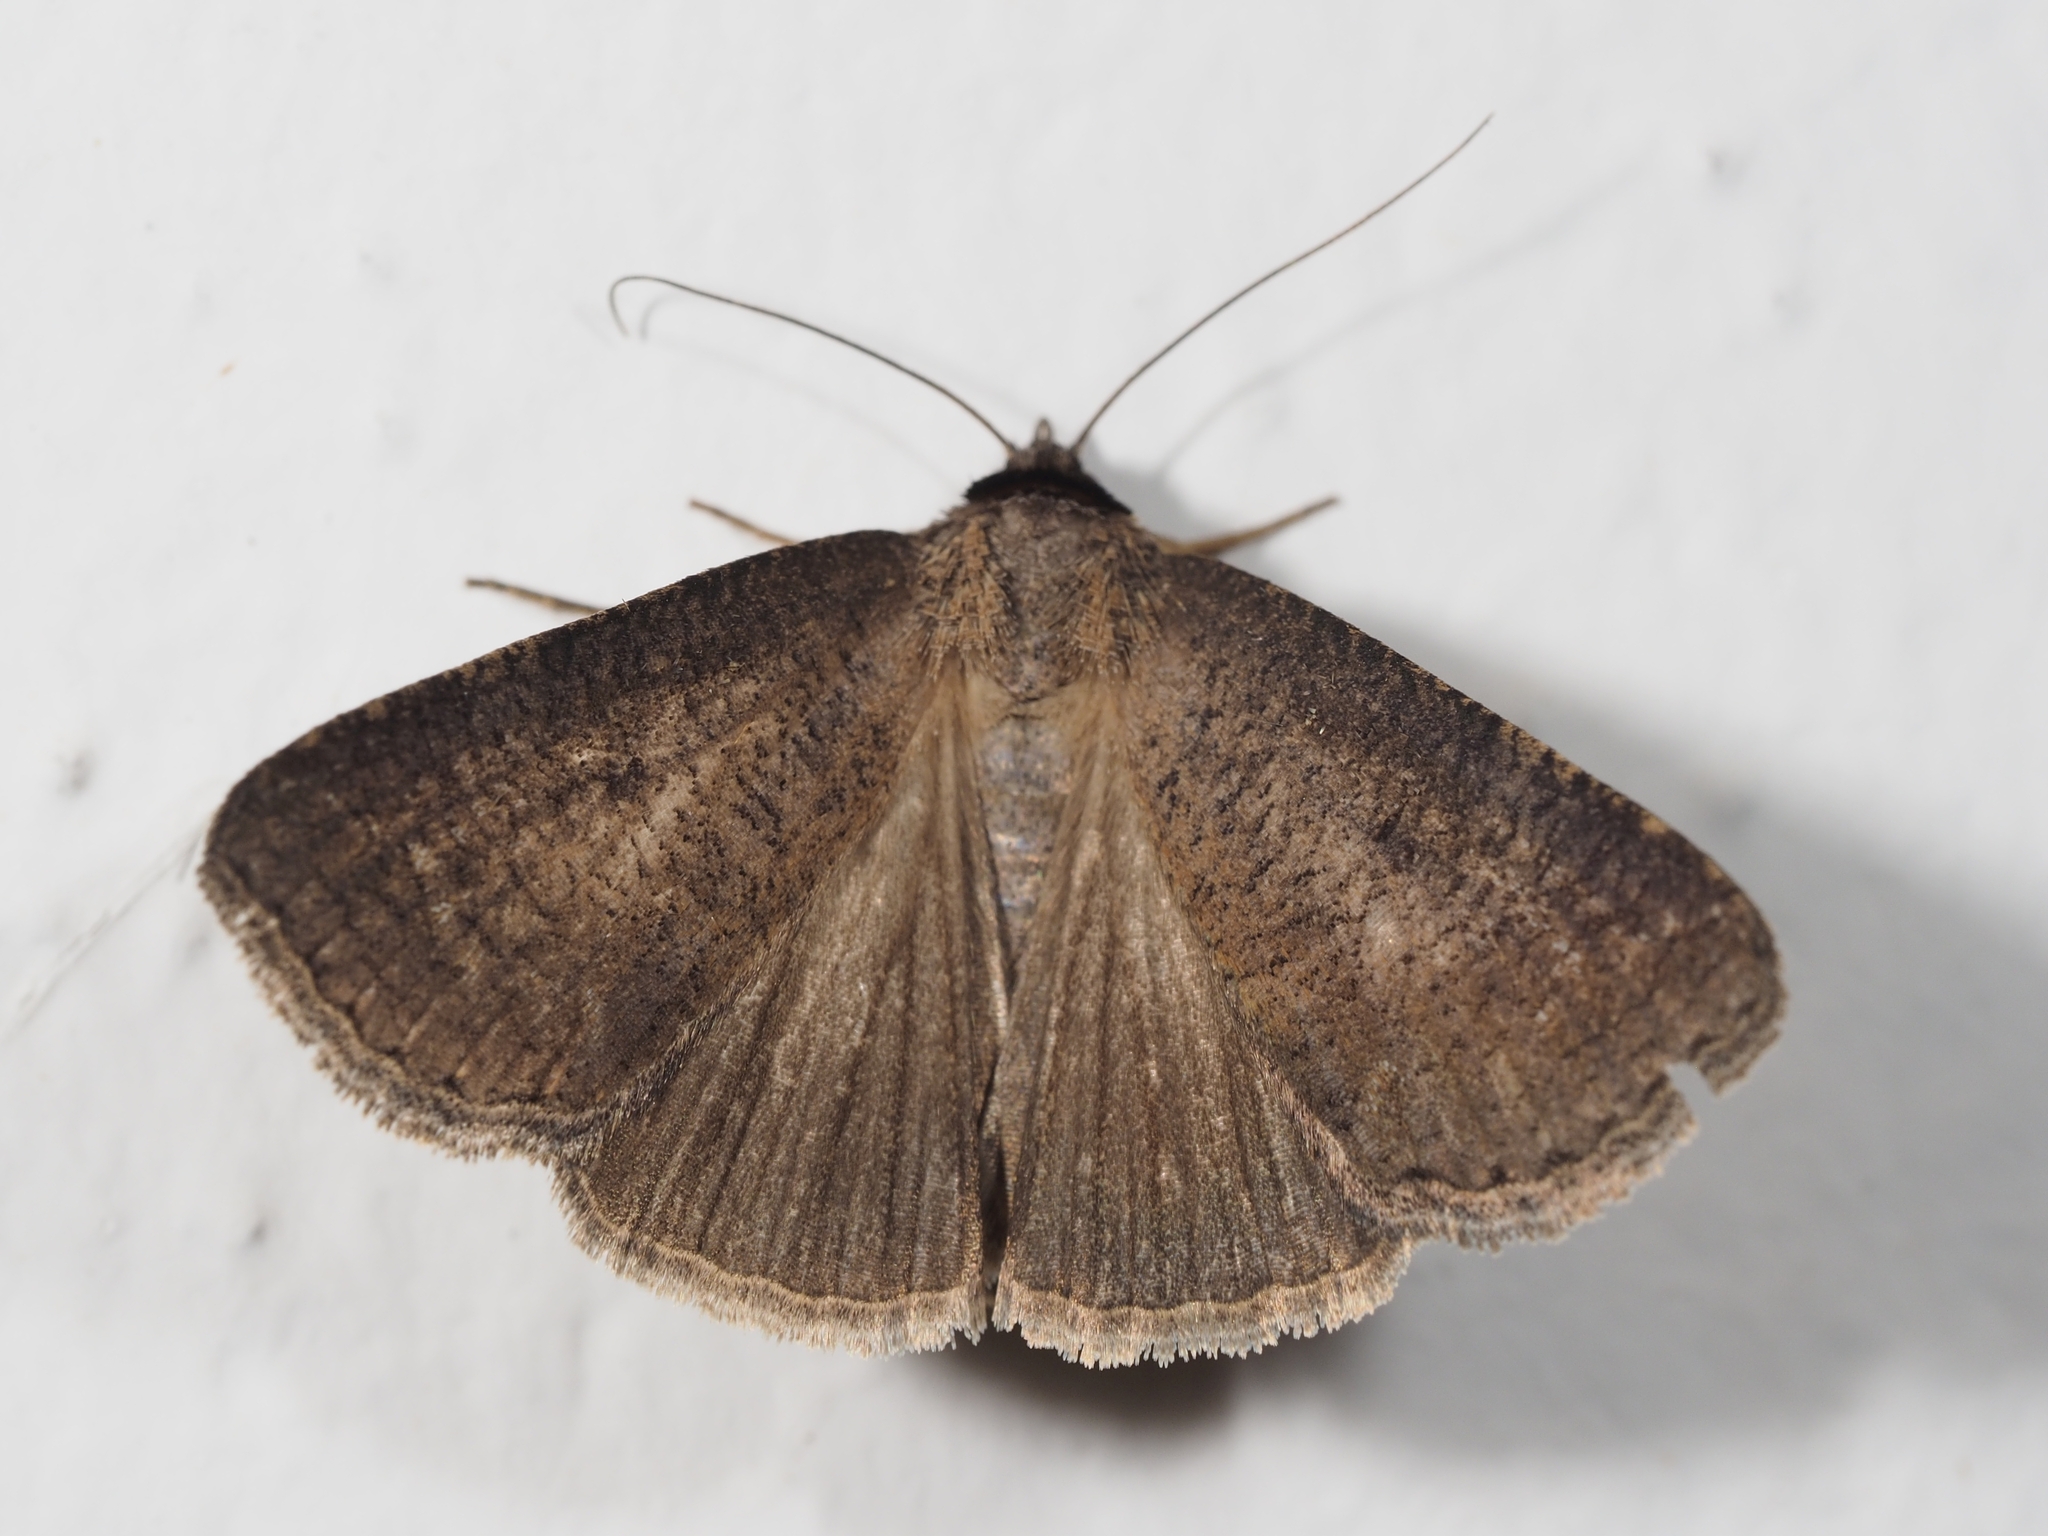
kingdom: Animalia
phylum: Arthropoda
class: Insecta
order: Lepidoptera
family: Erebidae
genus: Lygephila
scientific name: Lygephila procax
